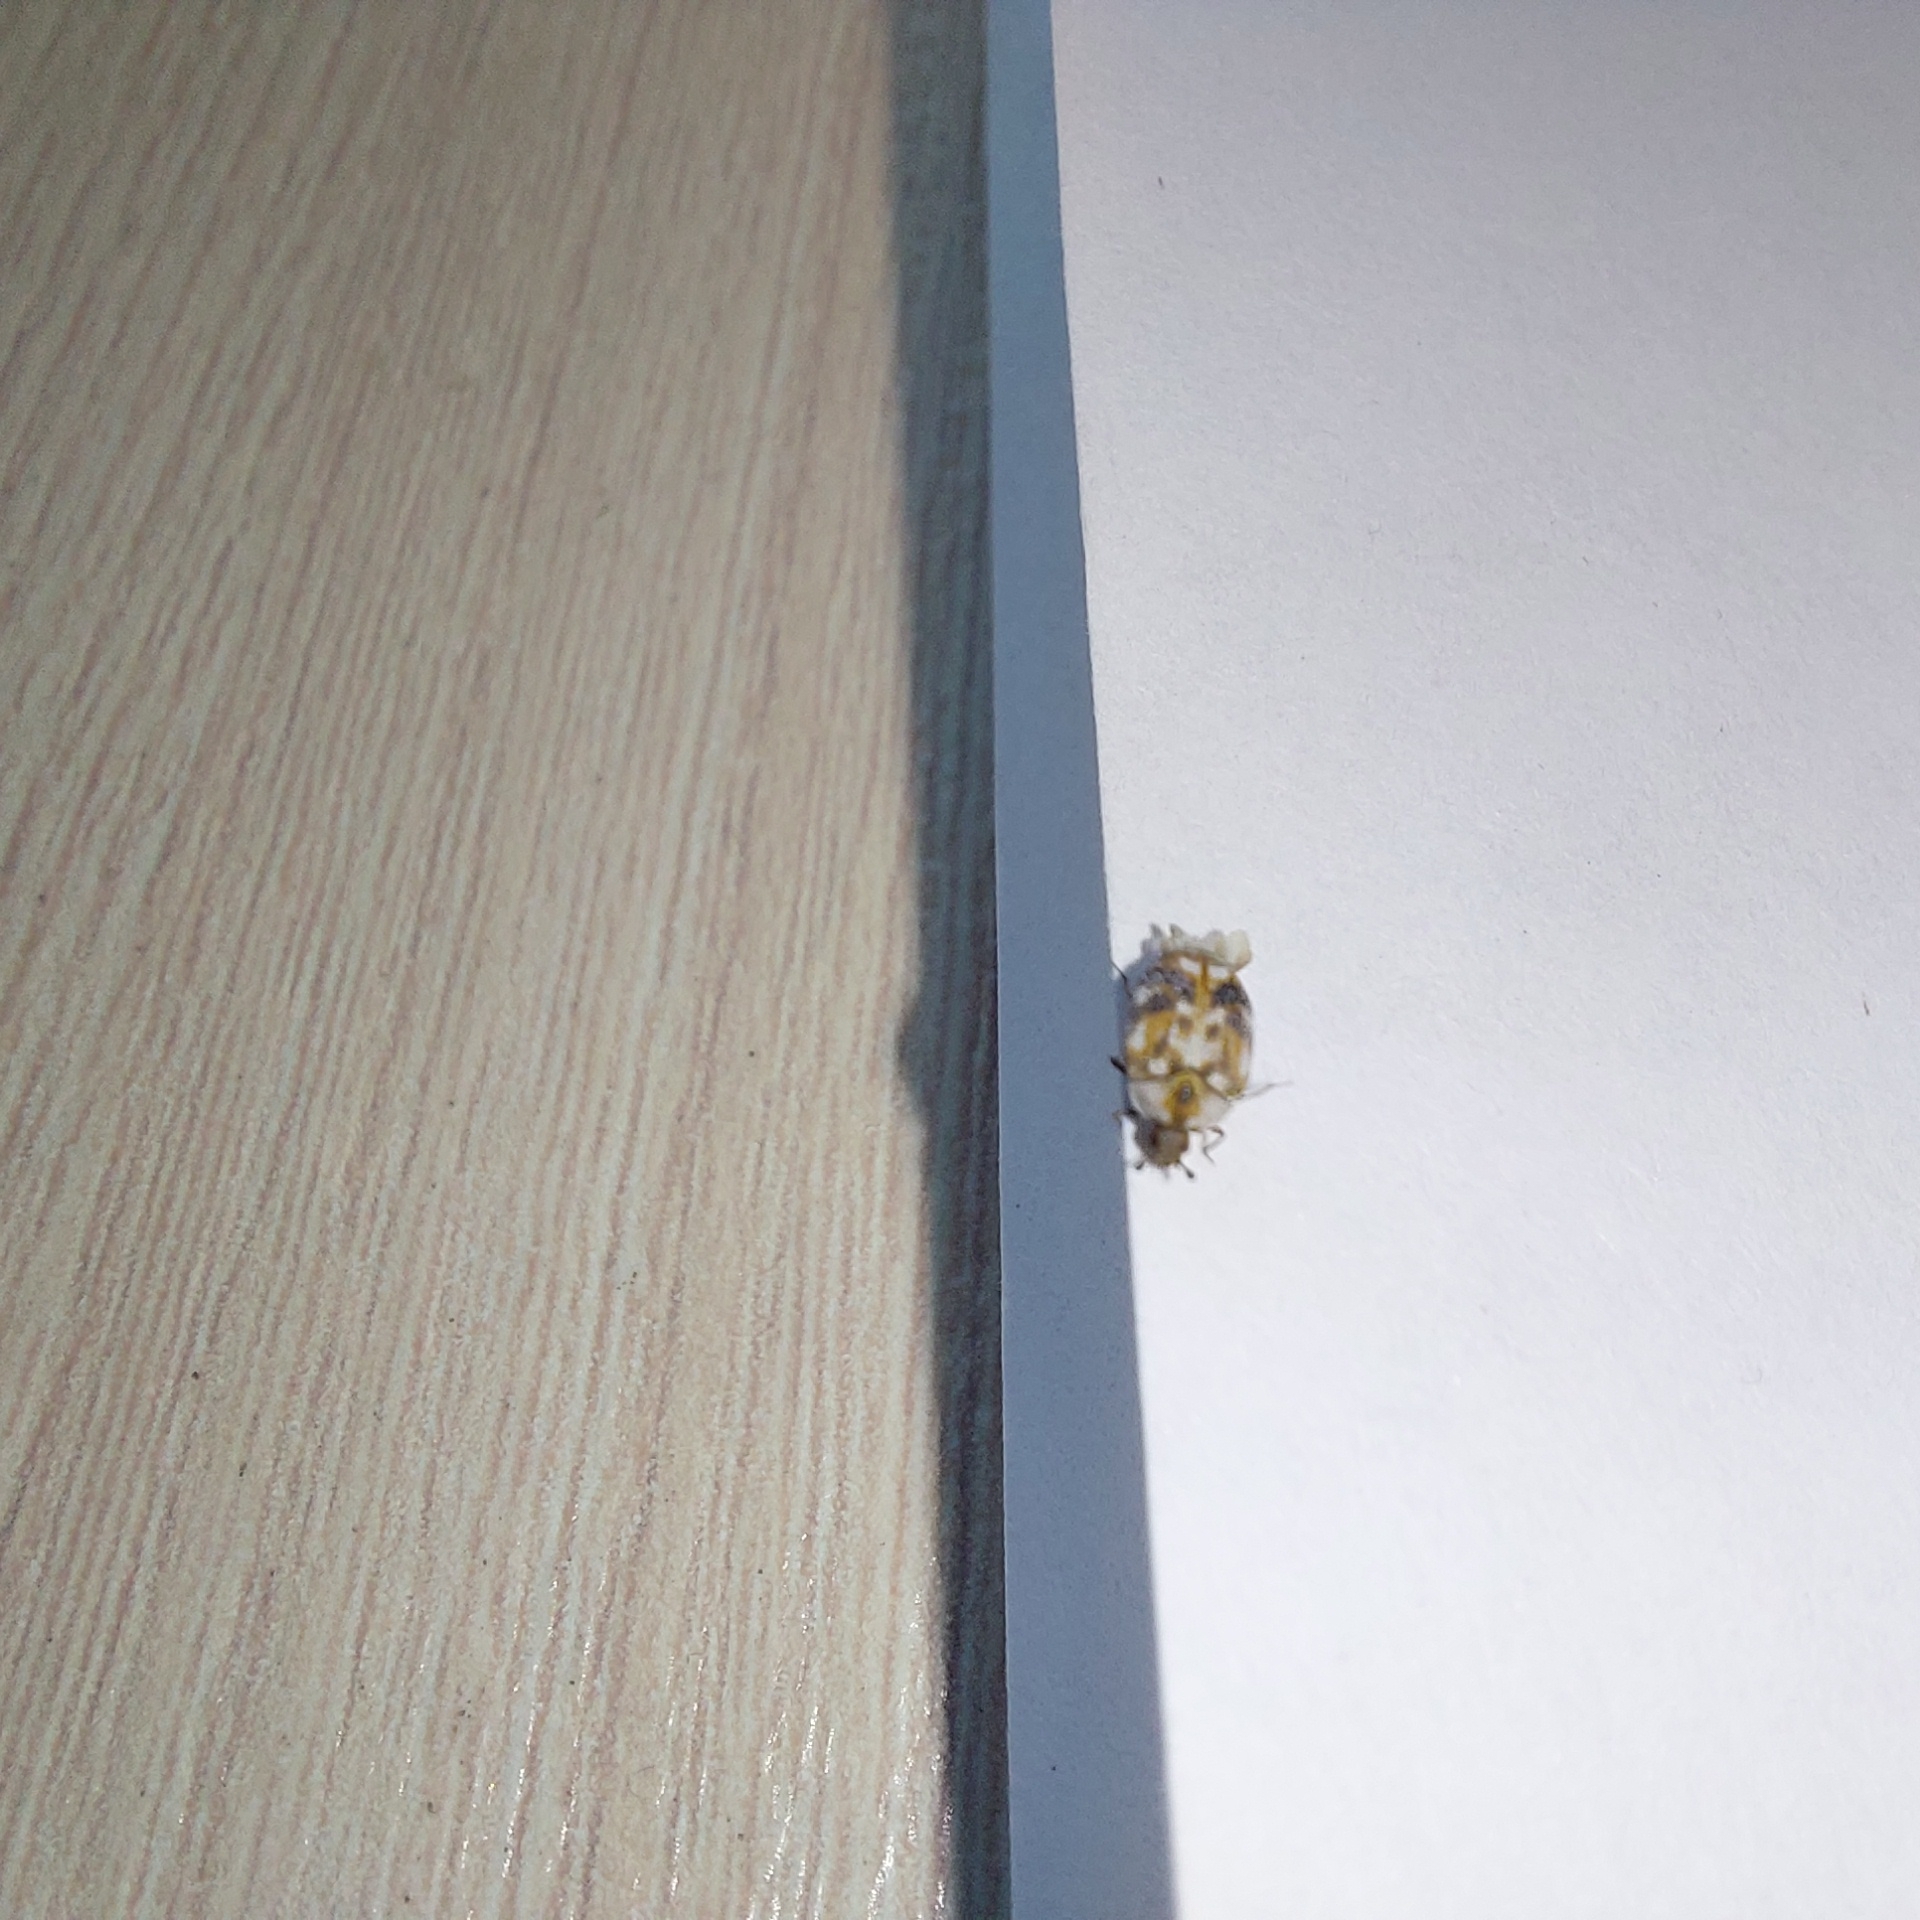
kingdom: Animalia
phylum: Arthropoda
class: Insecta
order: Coleoptera
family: Dermestidae
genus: Anthrenus
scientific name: Anthrenus picturatus
